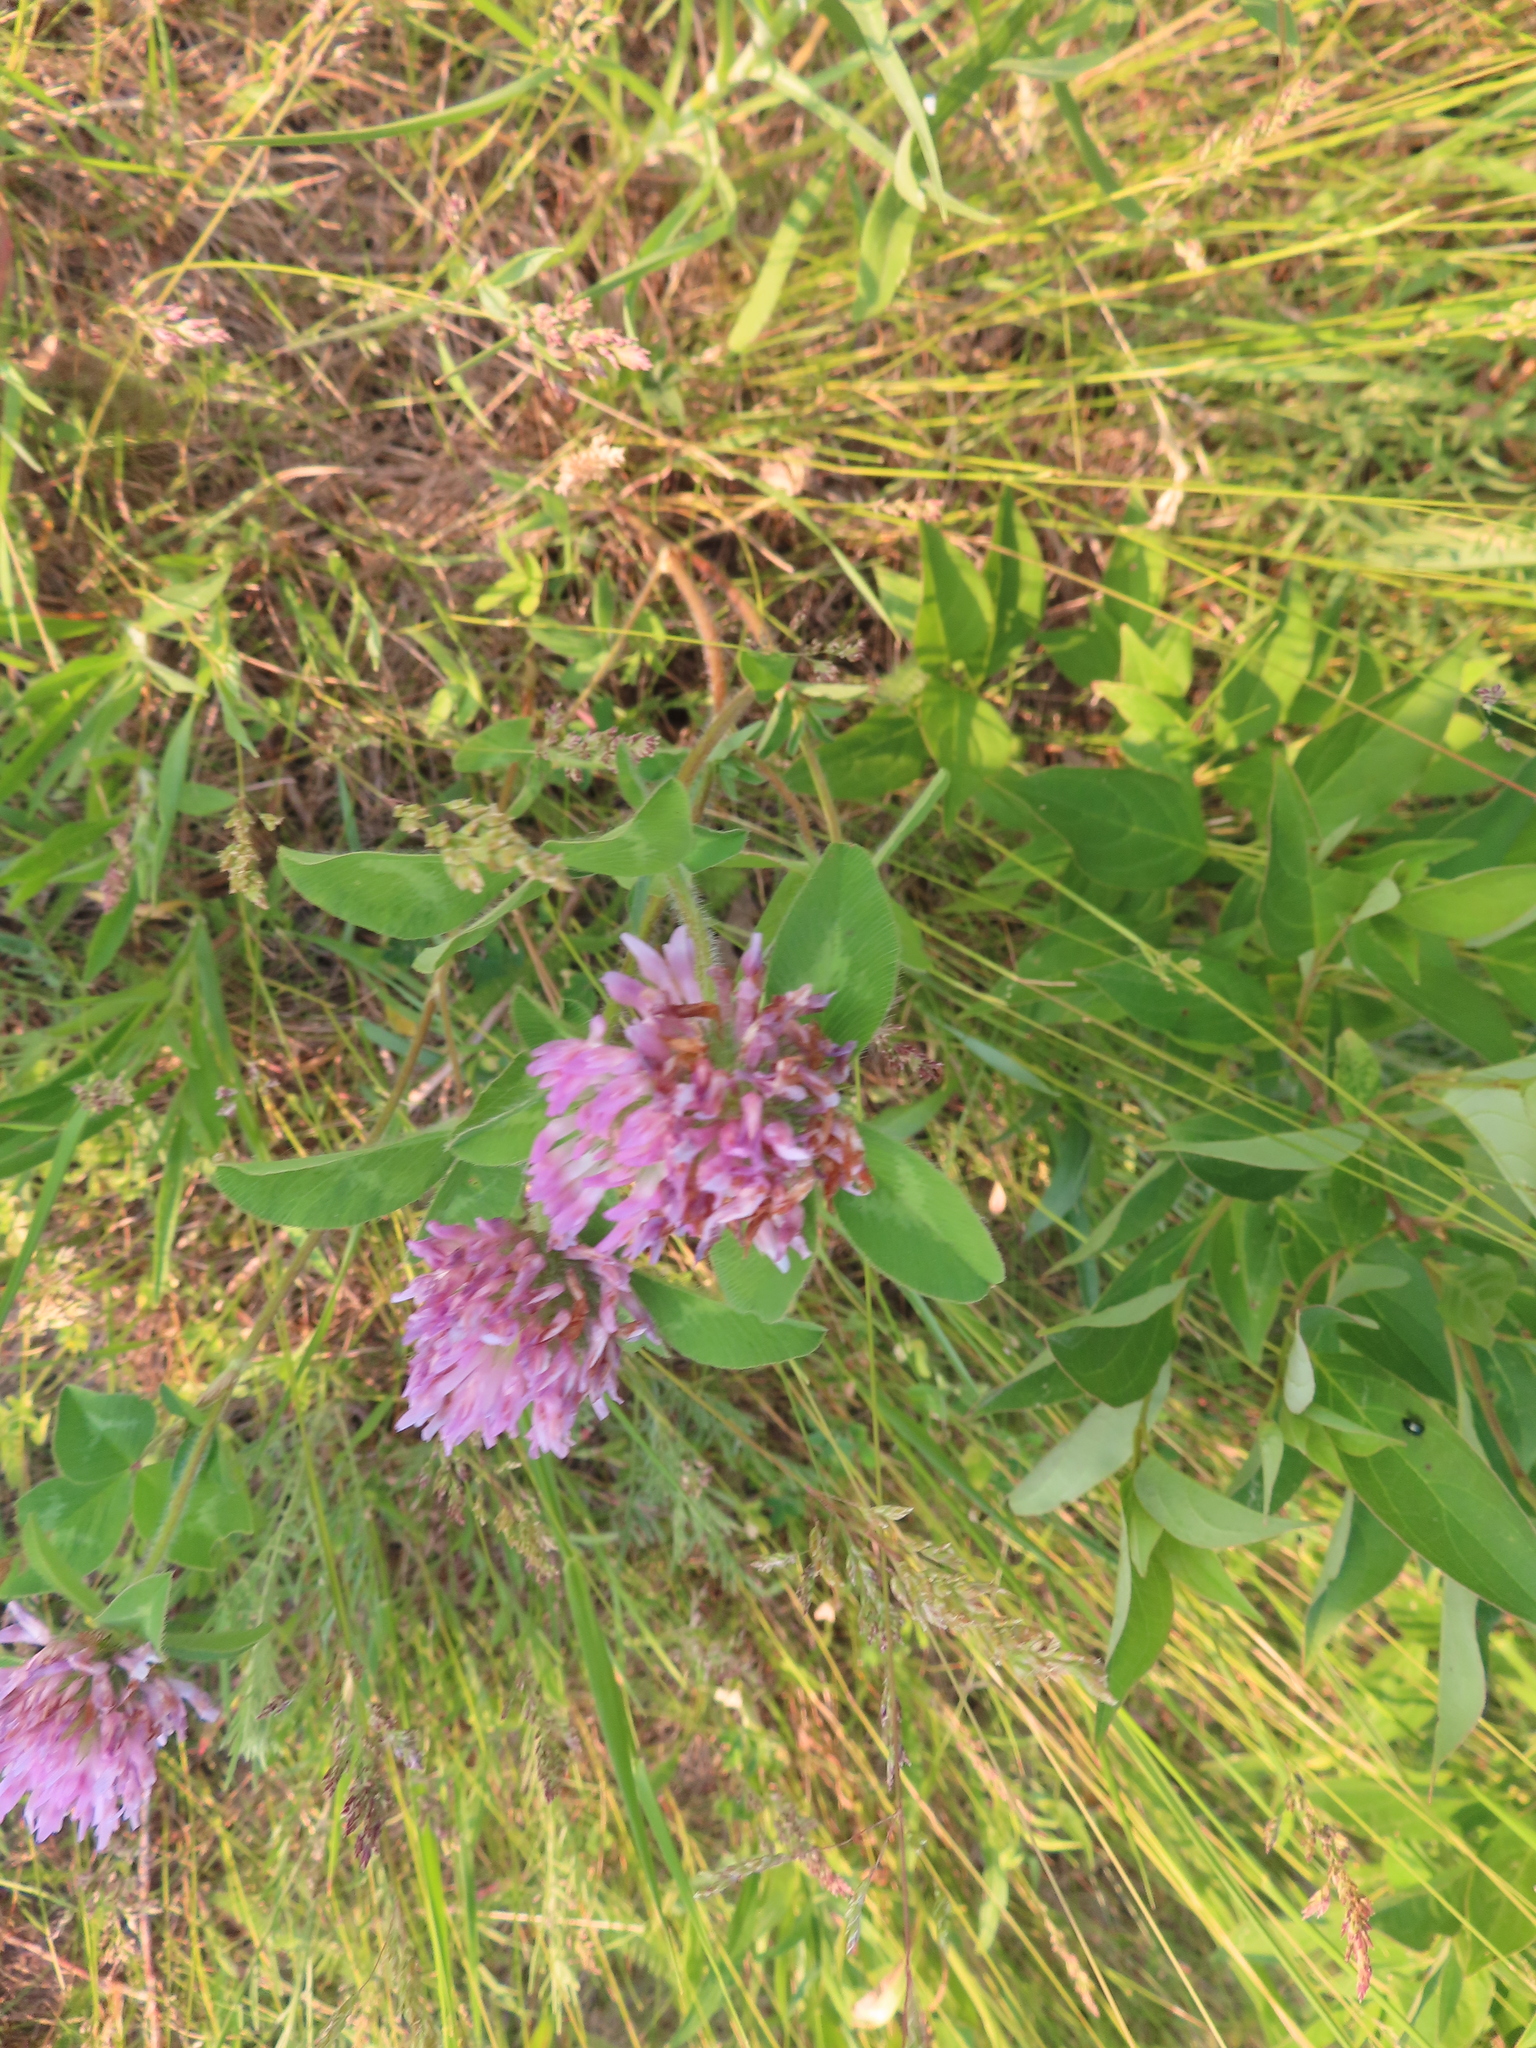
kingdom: Plantae
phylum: Tracheophyta
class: Magnoliopsida
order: Fabales
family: Fabaceae
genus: Trifolium
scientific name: Trifolium pratense
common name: Red clover
